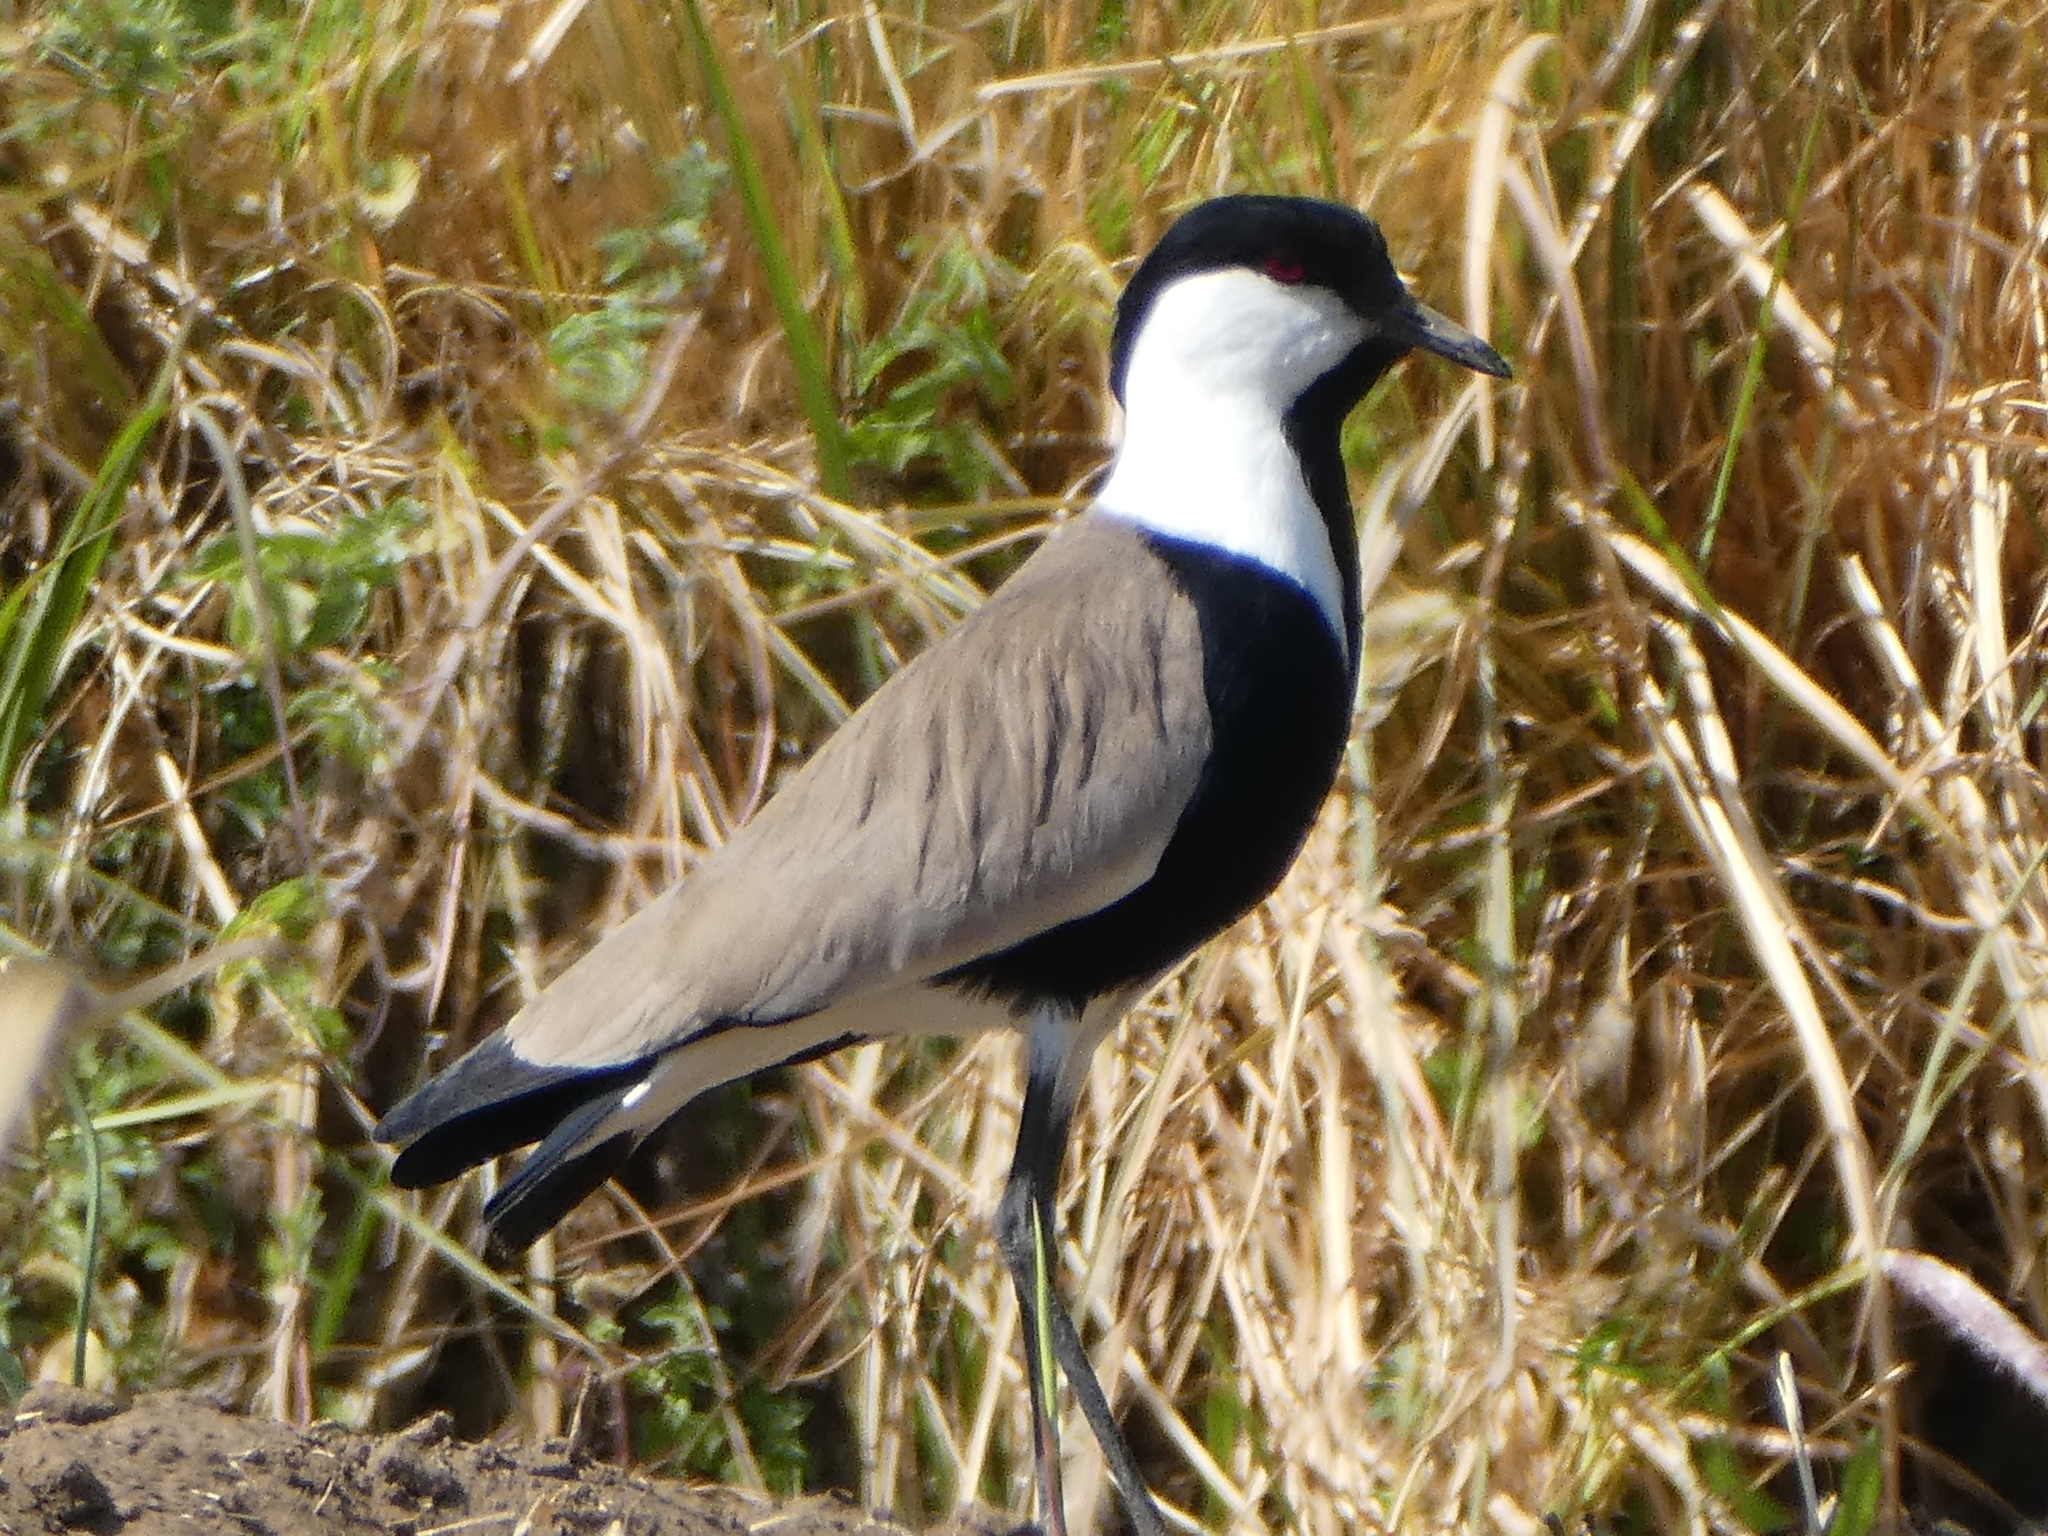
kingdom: Animalia
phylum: Chordata
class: Aves
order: Charadriiformes
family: Charadriidae
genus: Vanellus
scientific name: Vanellus spinosus
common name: Spur-winged lapwing
